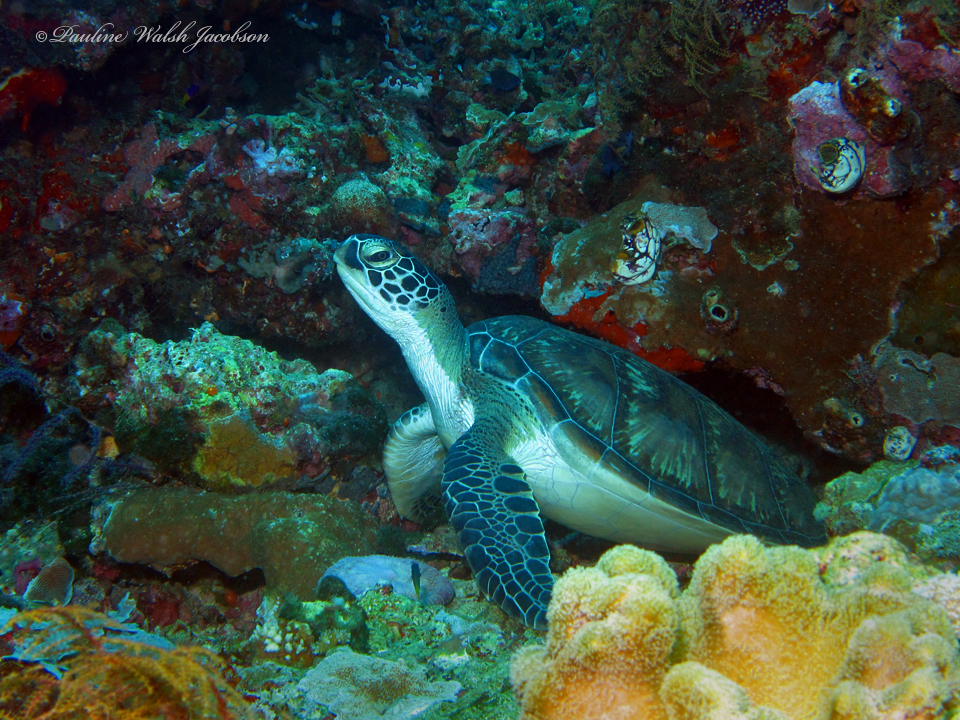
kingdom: Animalia
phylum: Chordata
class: Testudines
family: Cheloniidae
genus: Chelonia
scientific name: Chelonia mydas
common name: Green turtle
